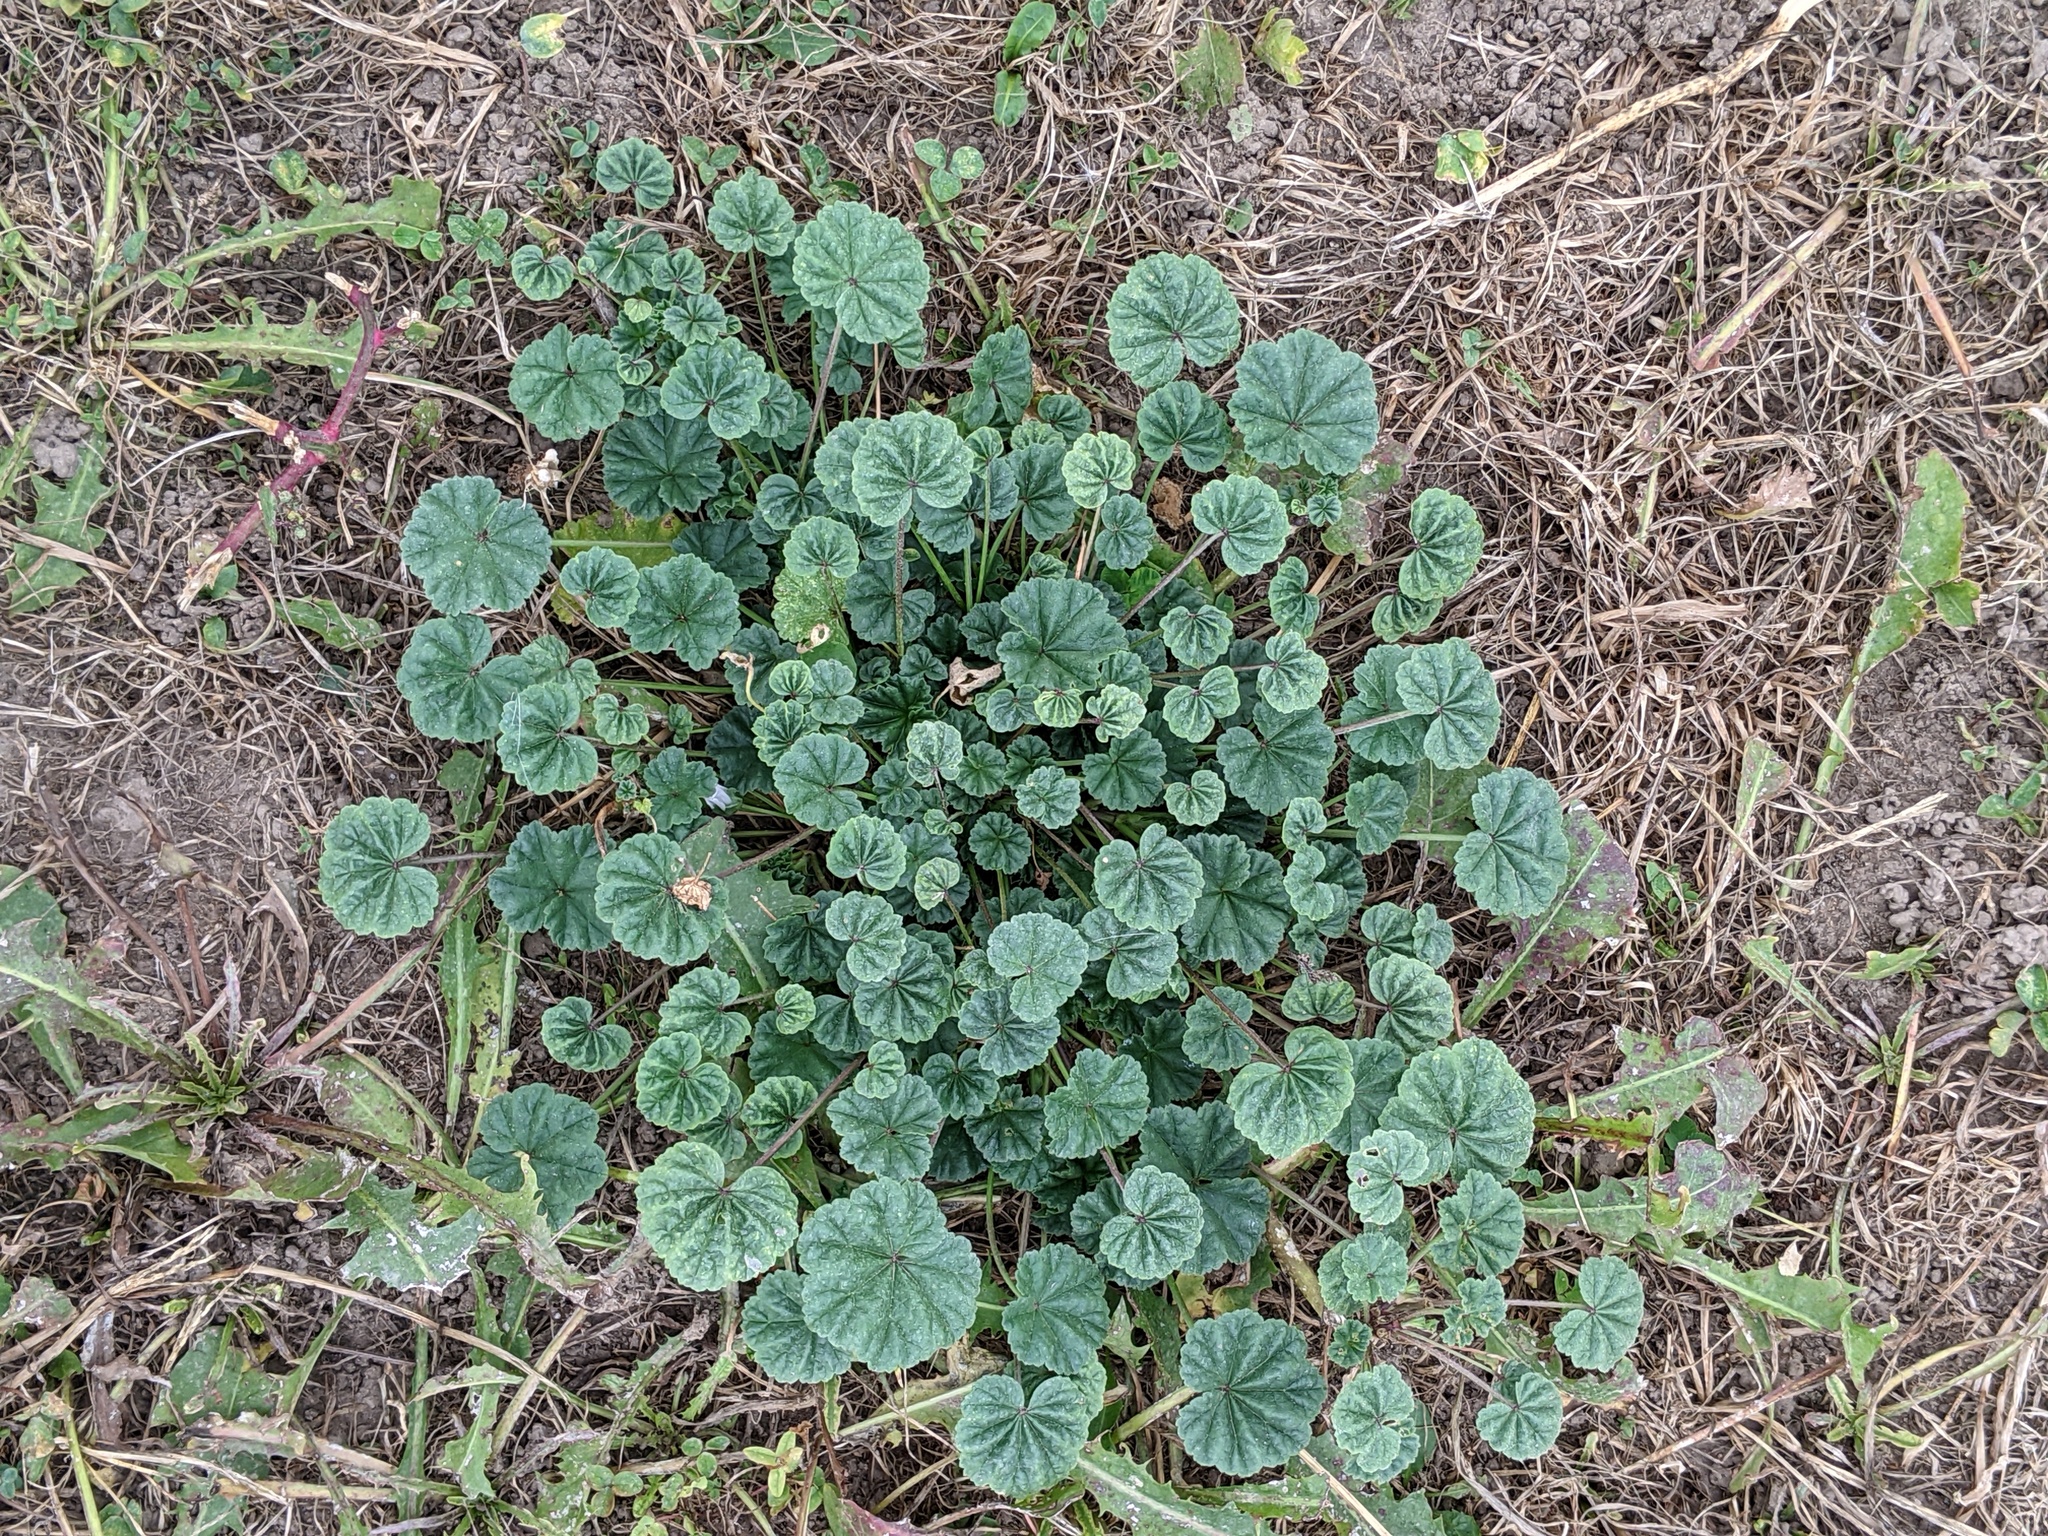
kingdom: Plantae
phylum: Tracheophyta
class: Magnoliopsida
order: Malvales
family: Malvaceae
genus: Malva
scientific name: Malva neglecta
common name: Common mallow
